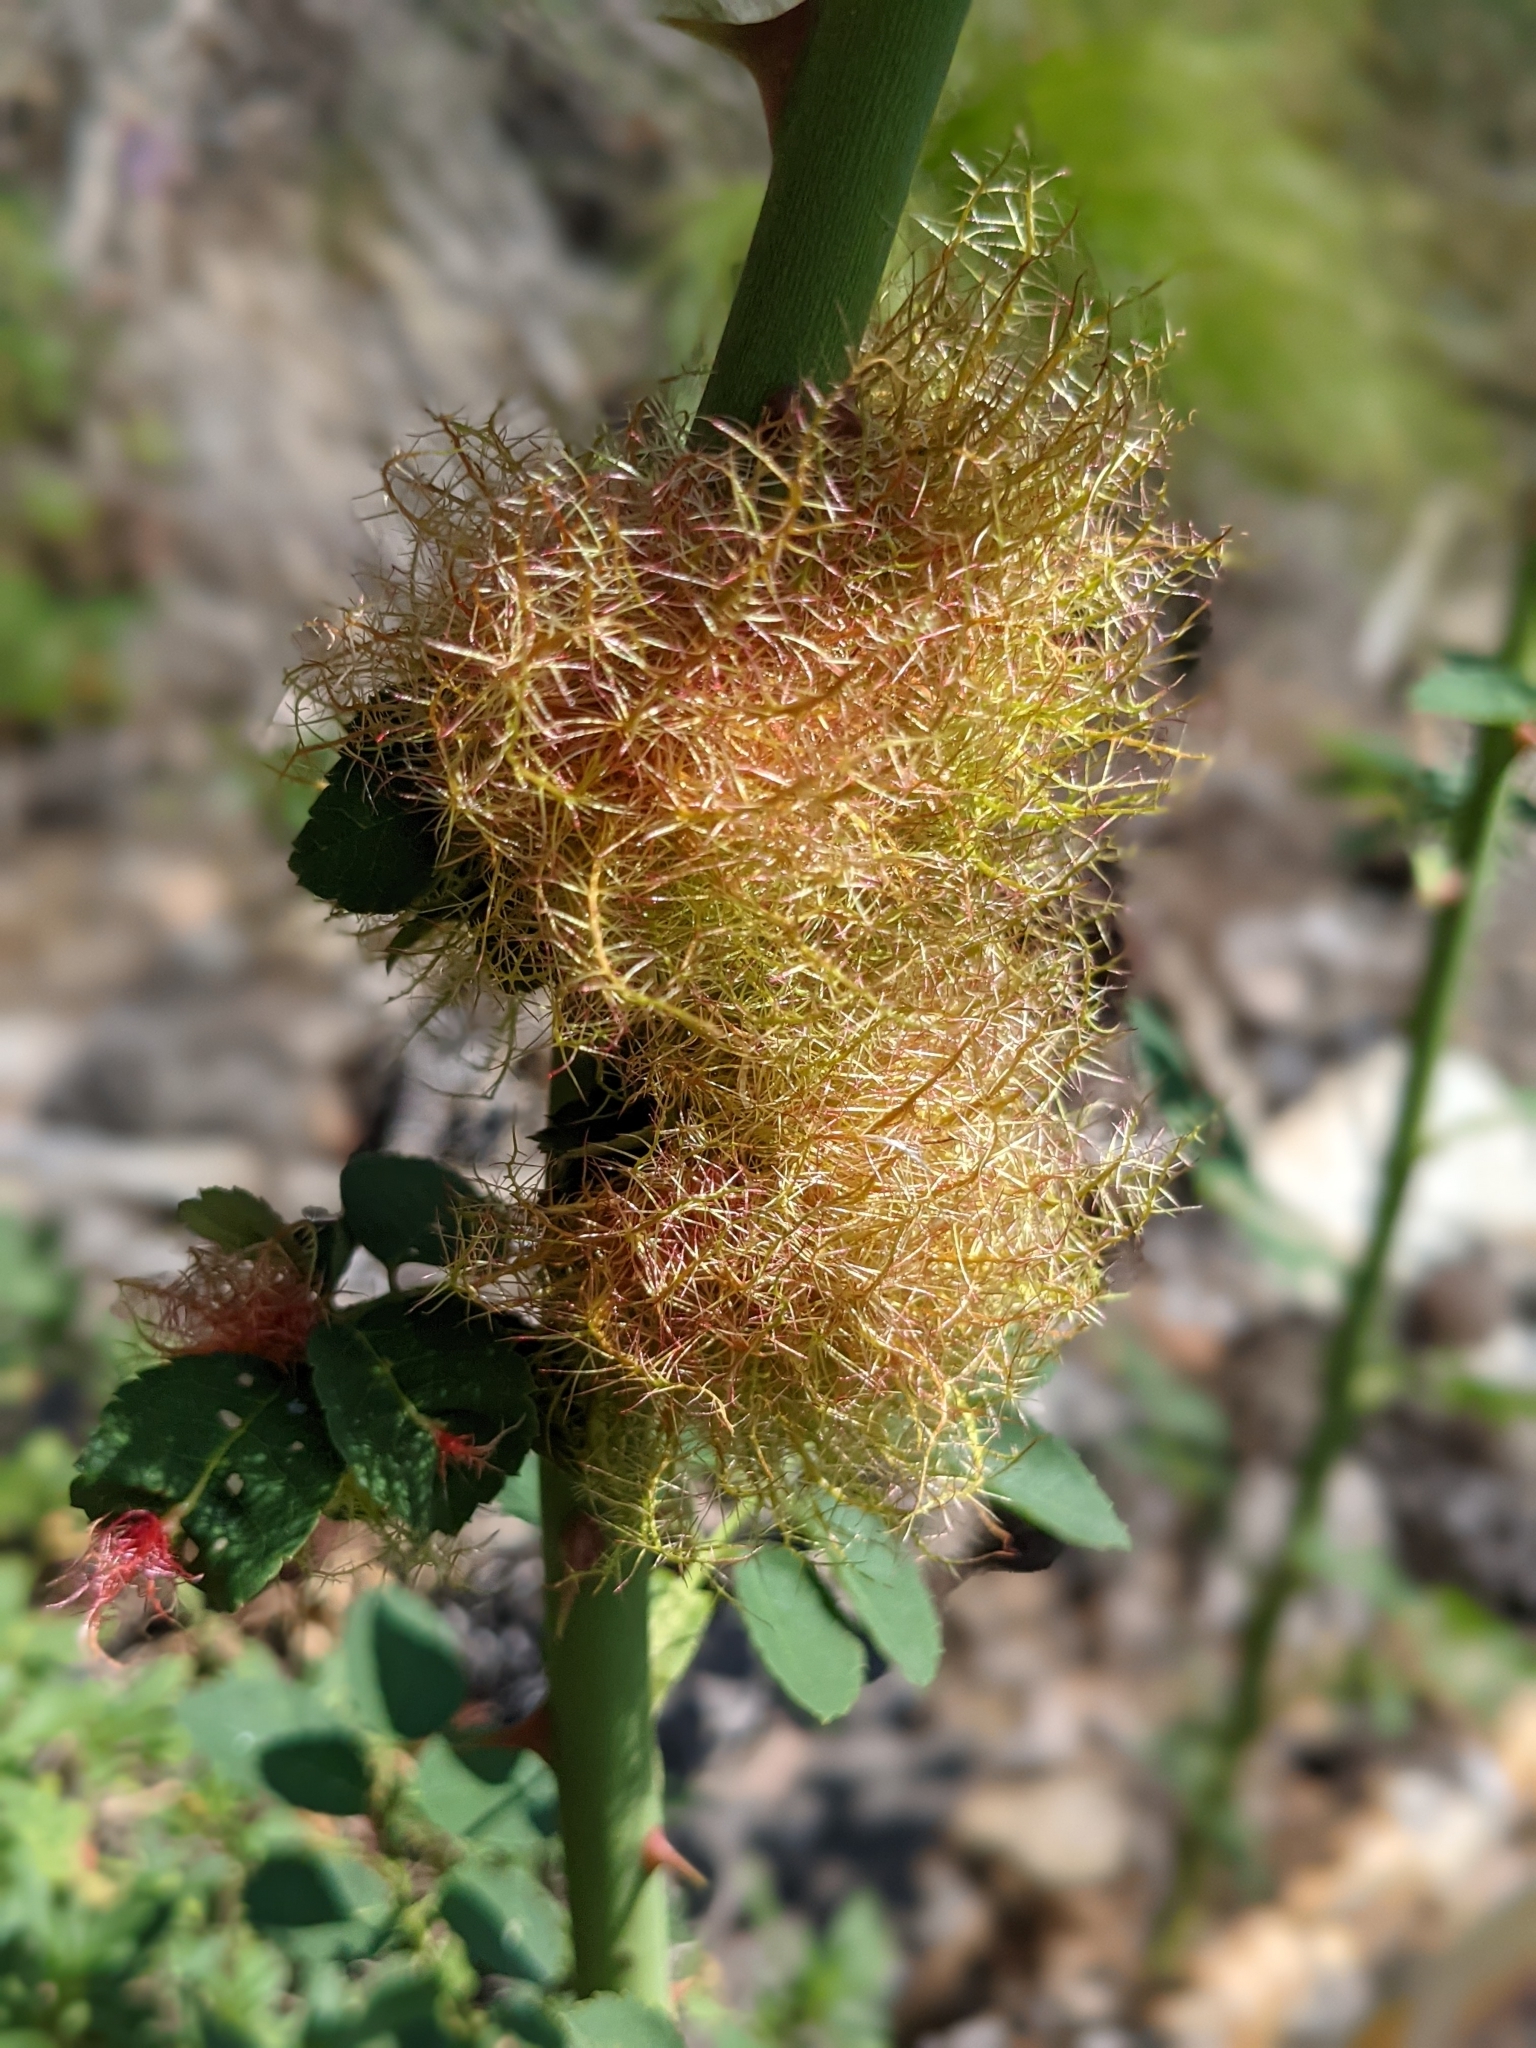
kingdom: Animalia
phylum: Arthropoda
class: Insecta
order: Hymenoptera
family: Cynipidae
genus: Diplolepis
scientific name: Diplolepis rosae
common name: Bedeguar gall
